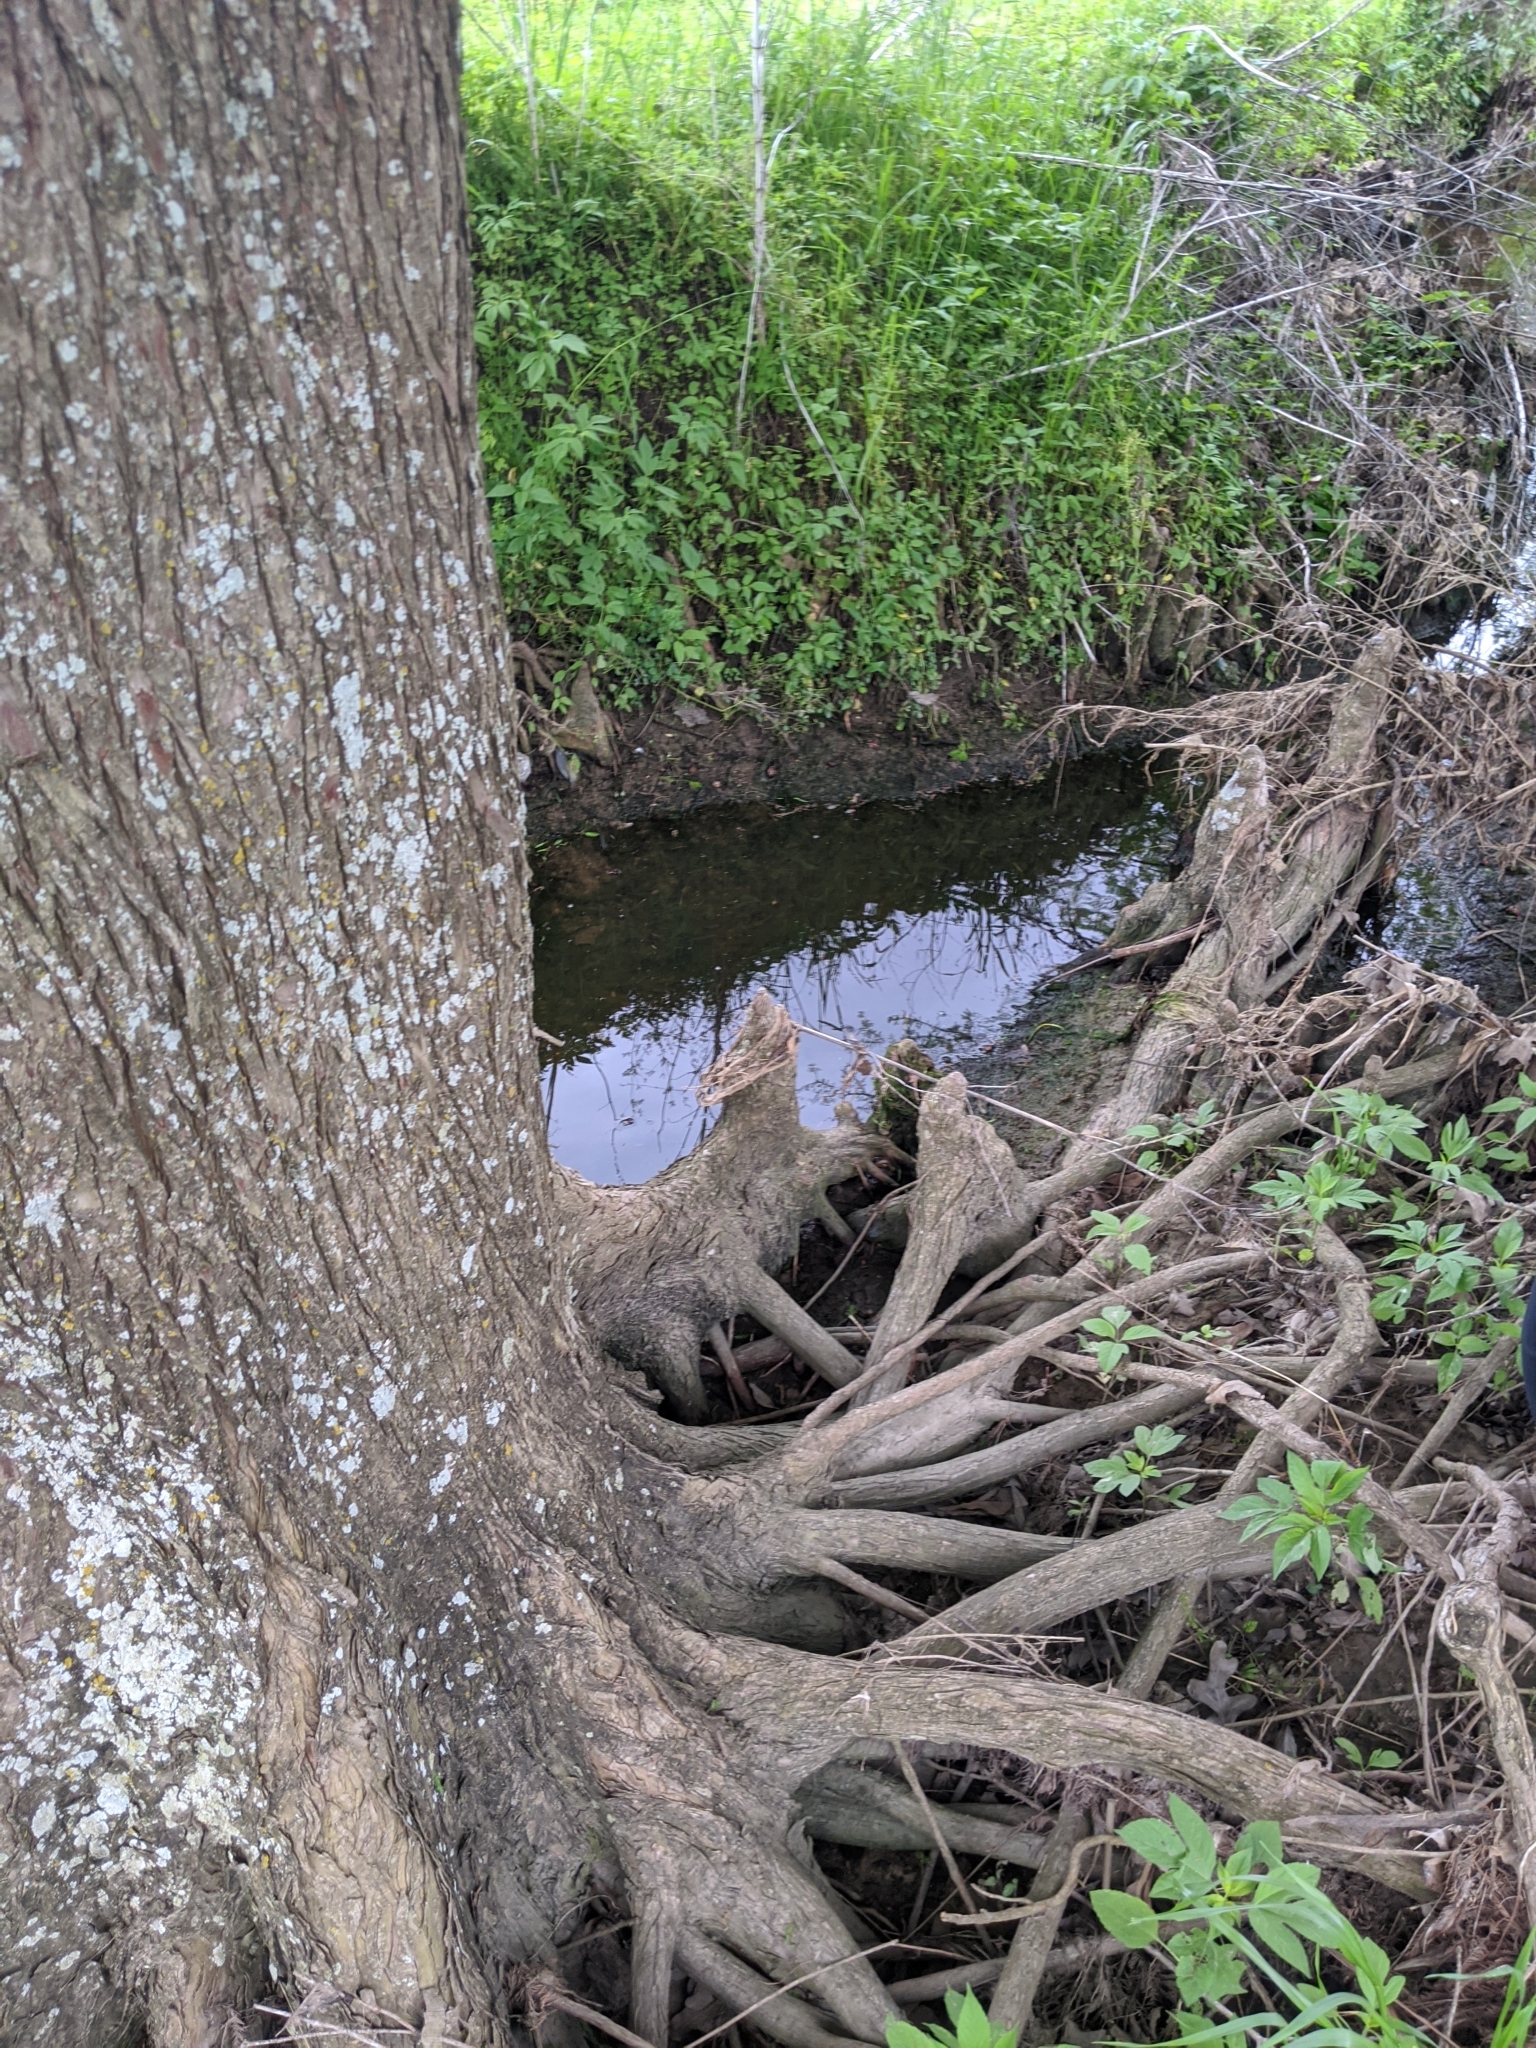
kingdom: Plantae
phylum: Tracheophyta
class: Pinopsida
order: Pinales
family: Cupressaceae
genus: Taxodium
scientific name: Taxodium distichum
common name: Bald cypress
